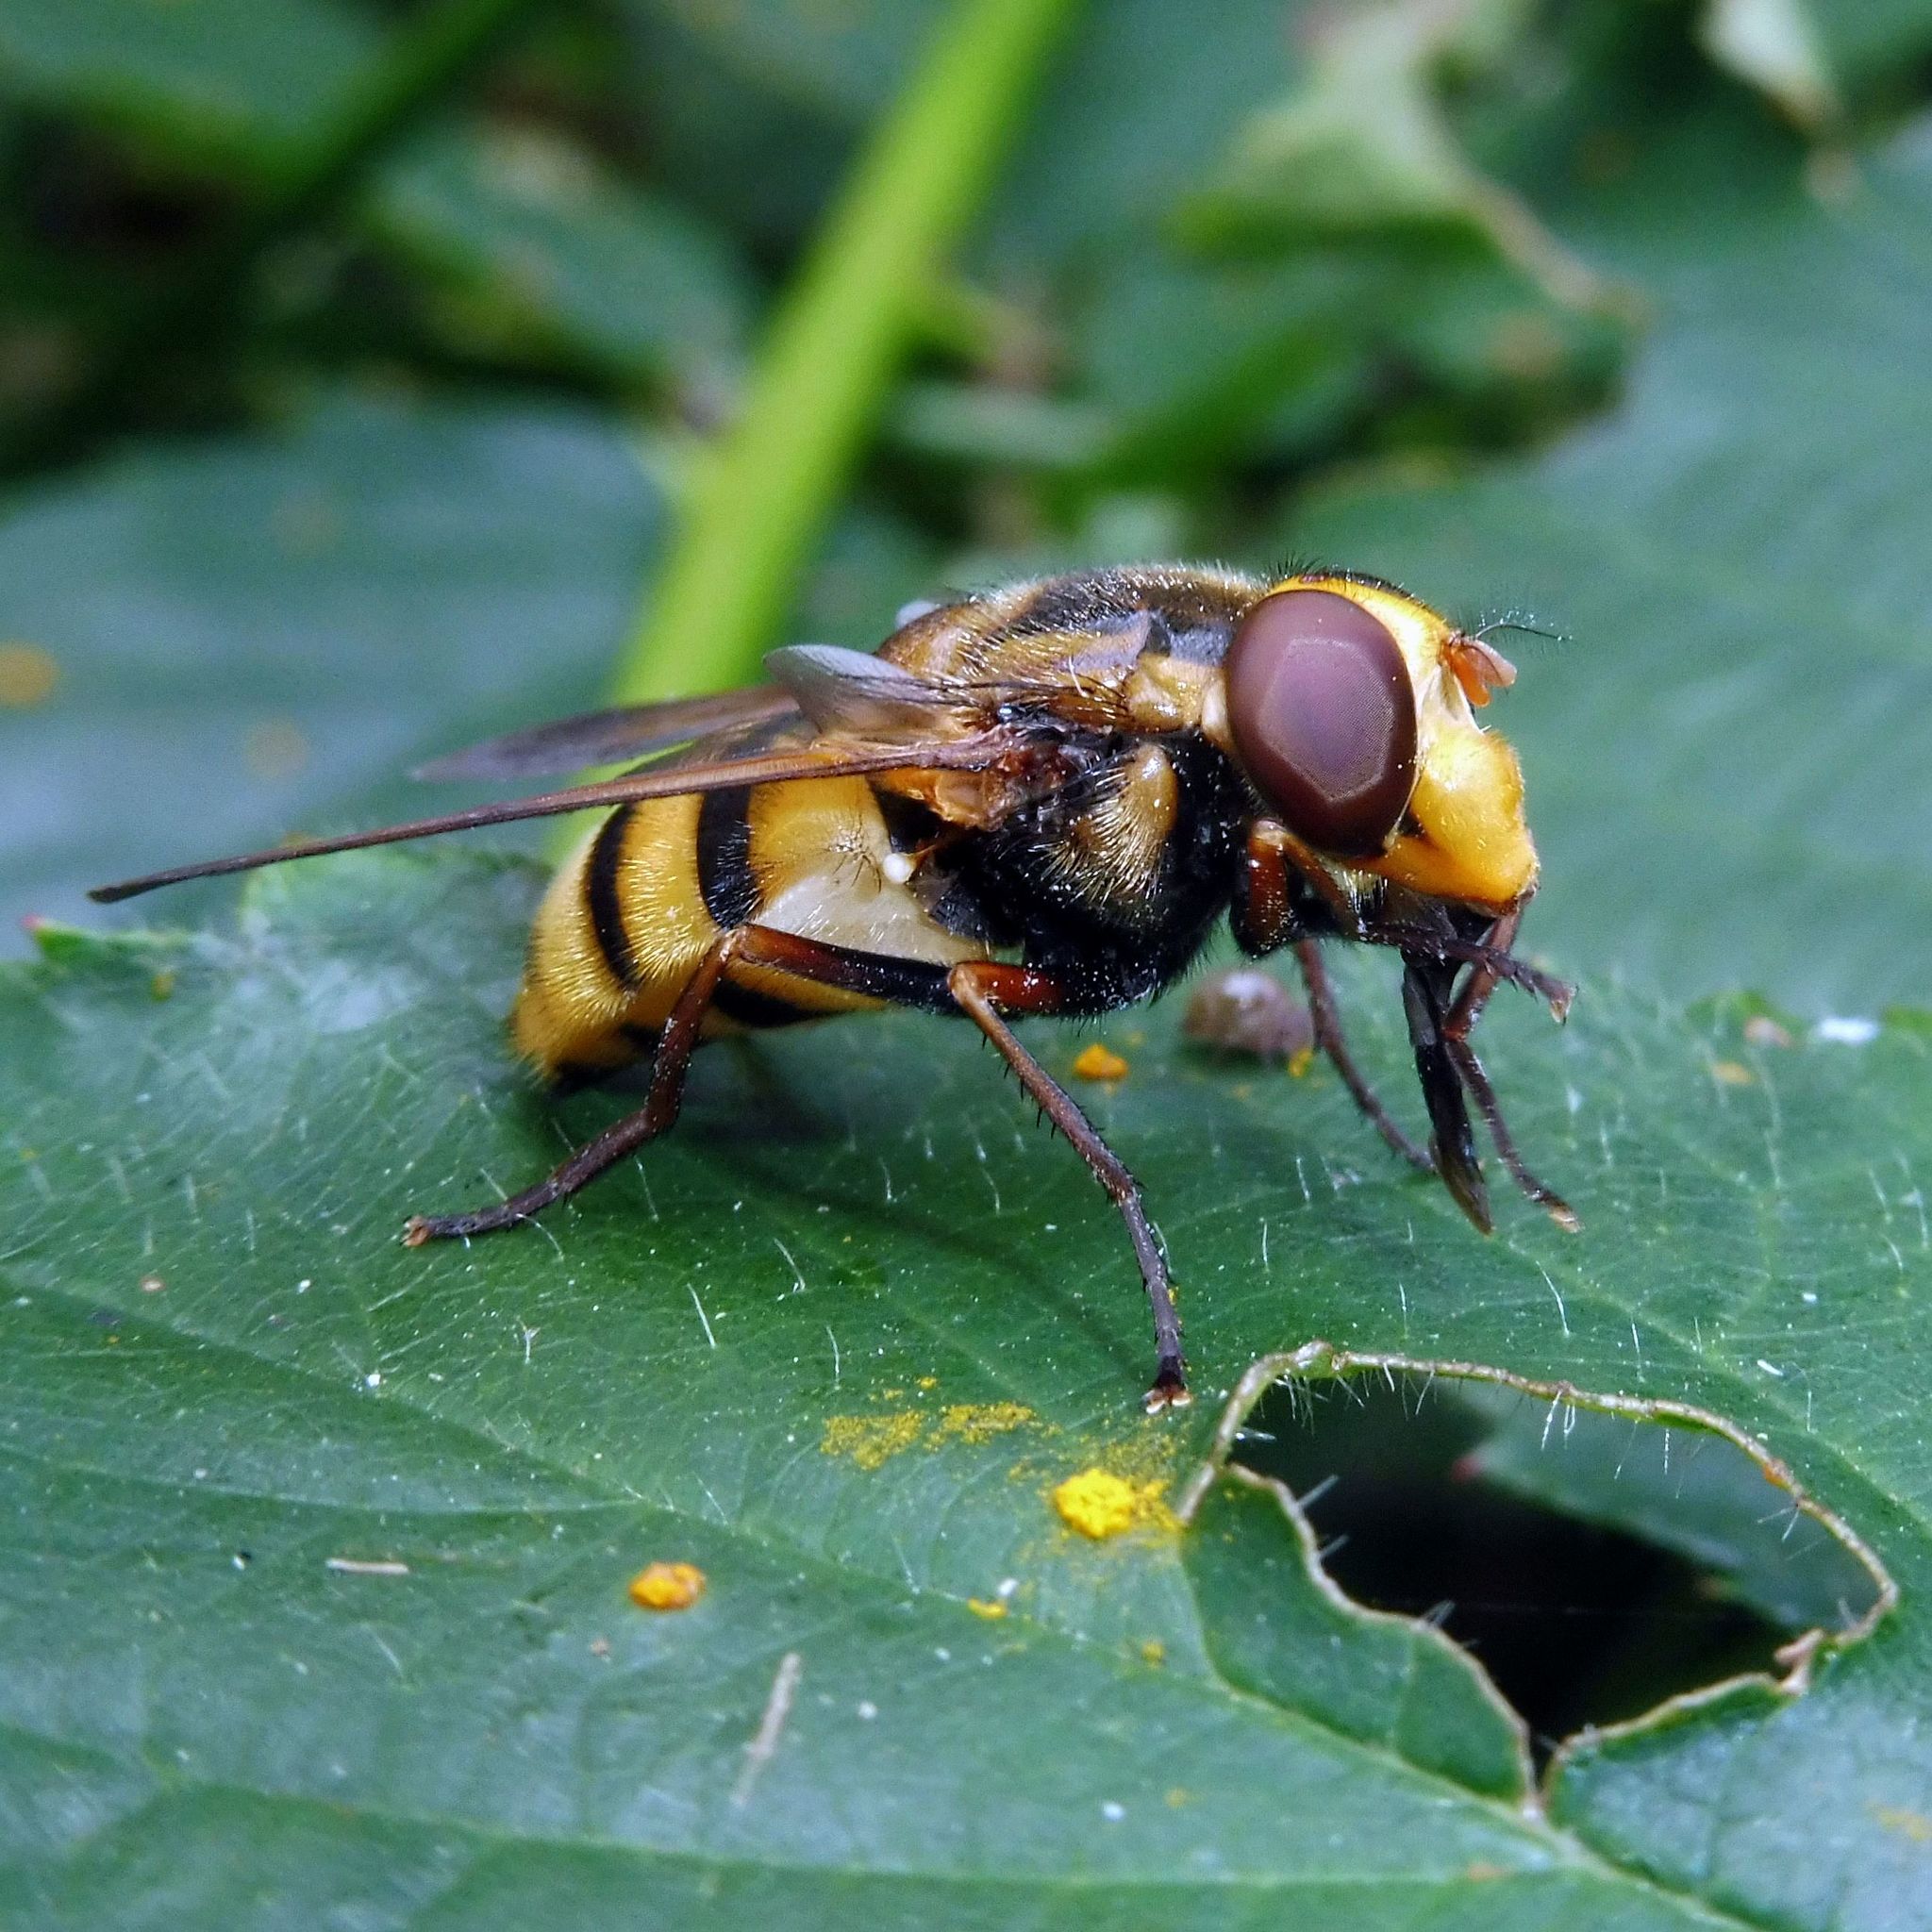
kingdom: Animalia
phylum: Arthropoda
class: Insecta
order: Diptera
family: Syrphidae
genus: Volucella
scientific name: Volucella inanis
